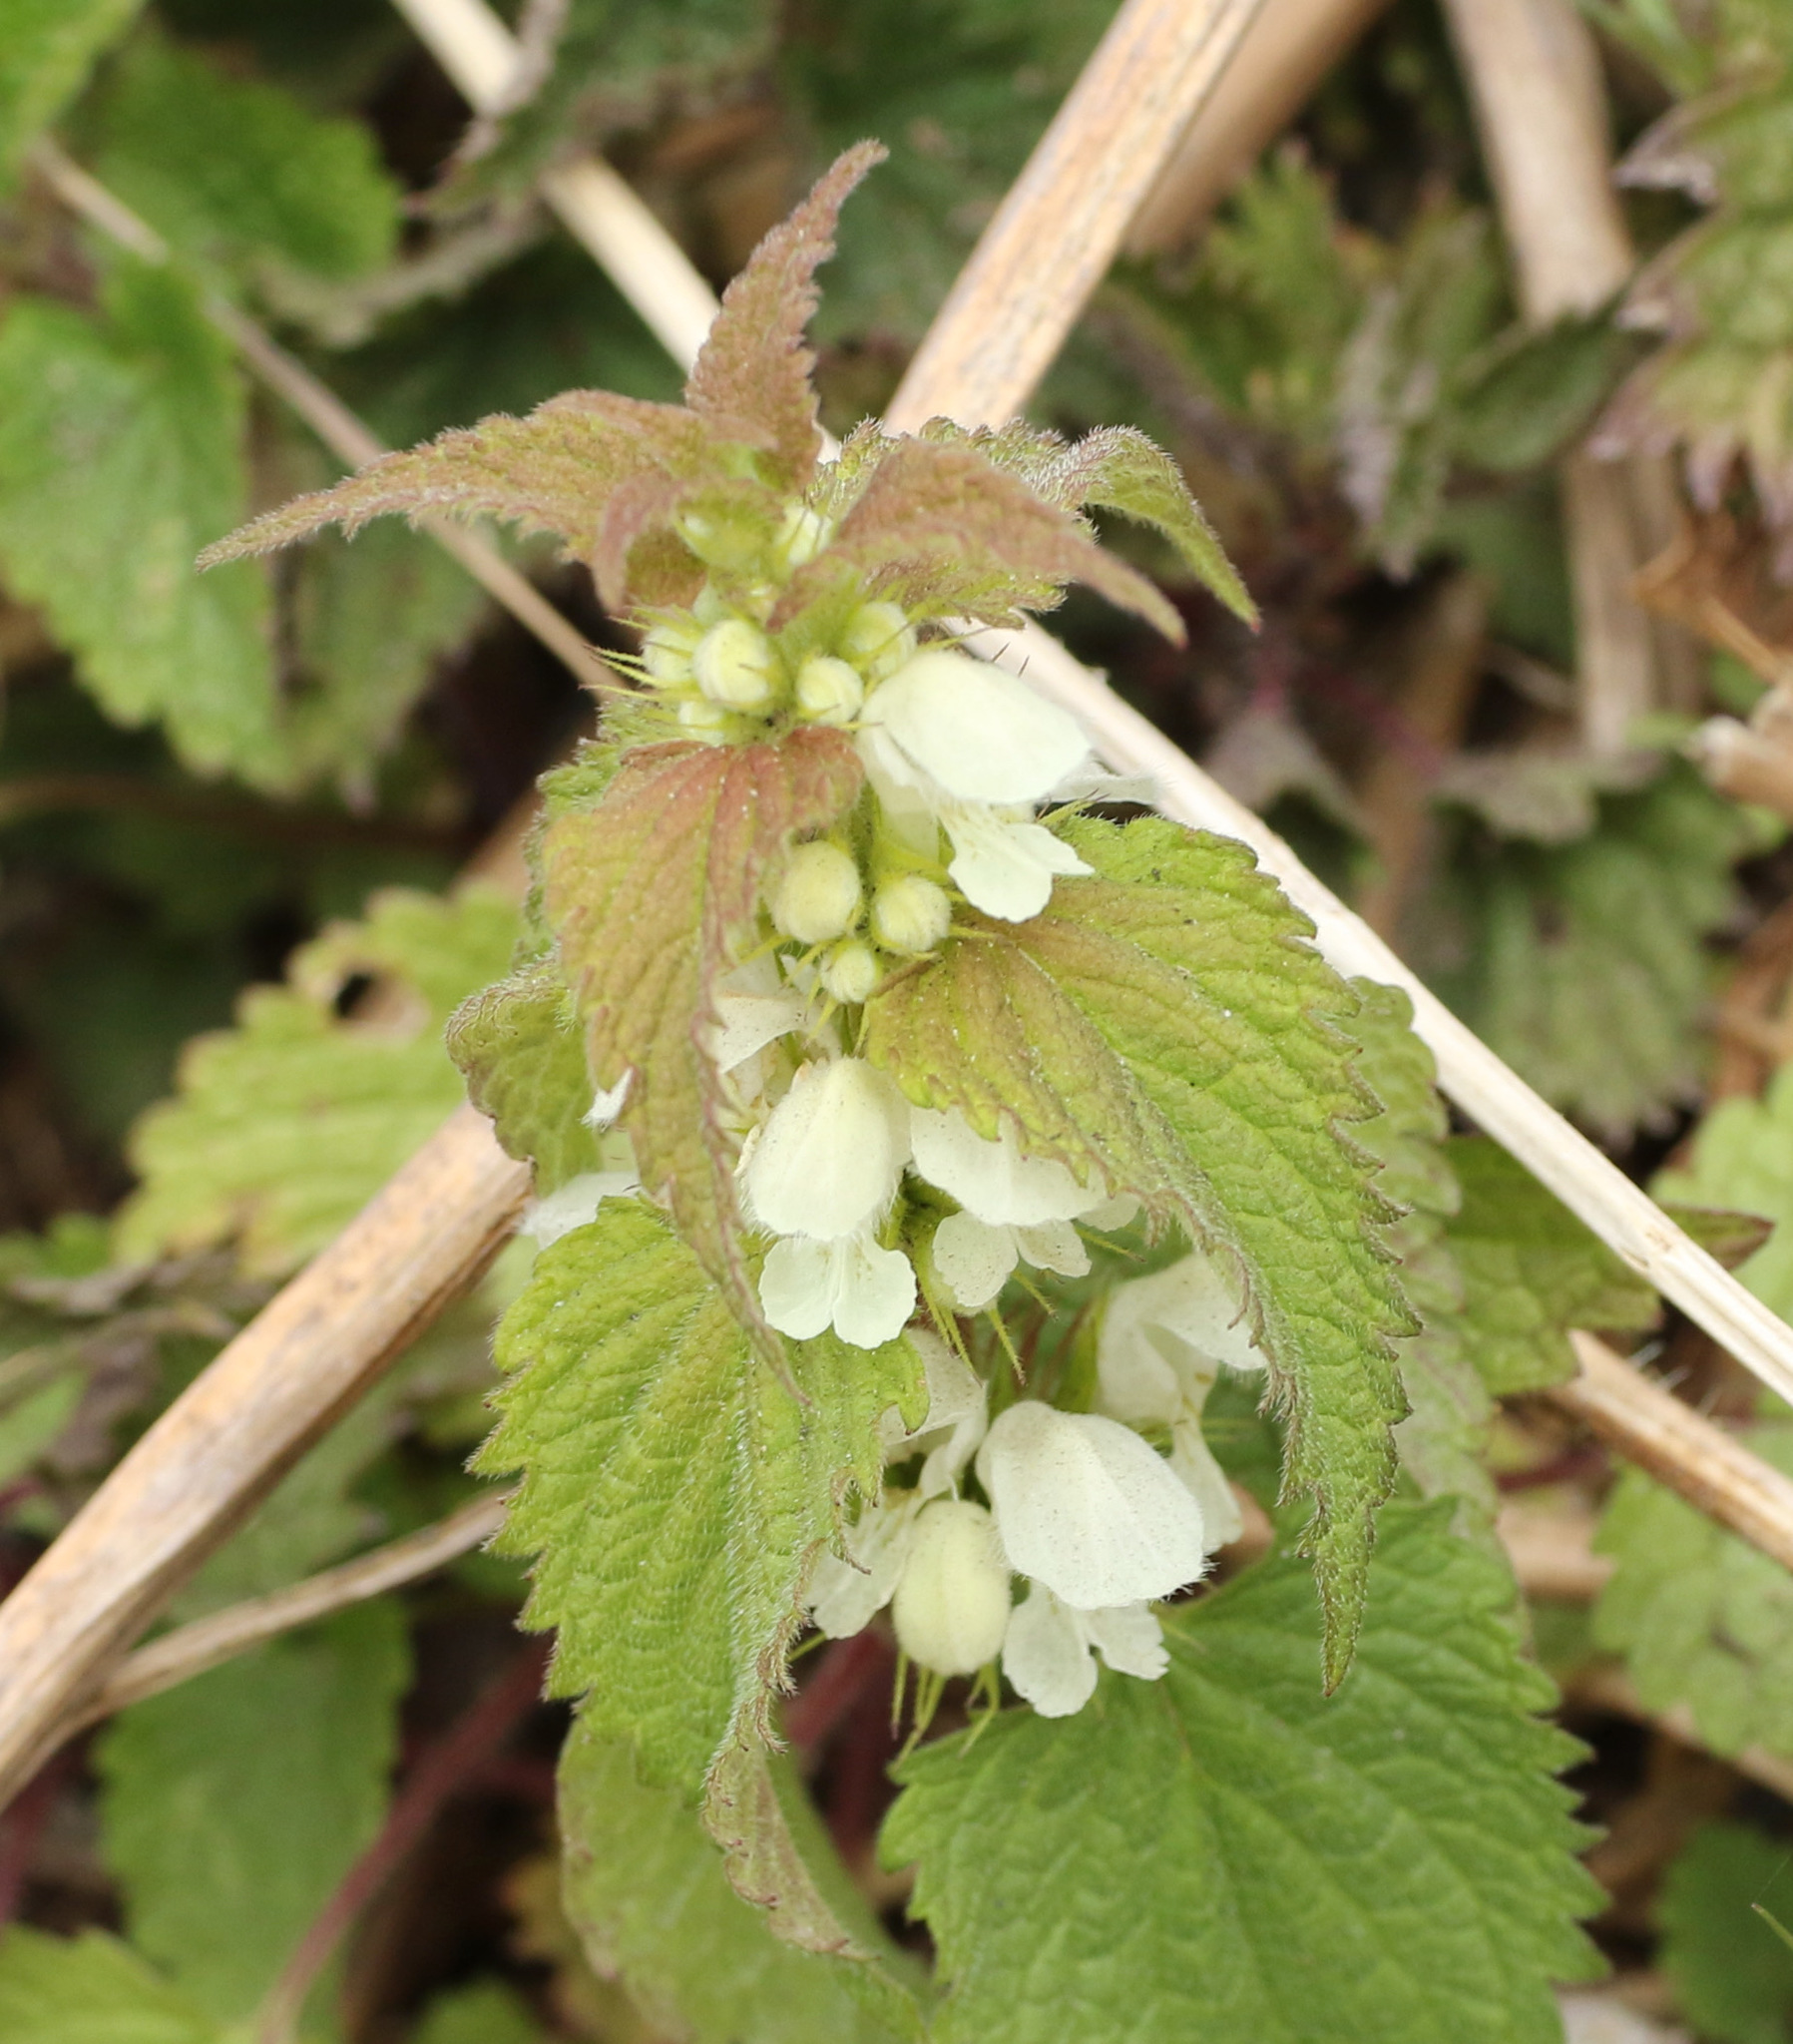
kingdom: Plantae
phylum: Tracheophyta
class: Magnoliopsida
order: Lamiales
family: Lamiaceae
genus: Lamium
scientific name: Lamium album
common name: White dead-nettle
